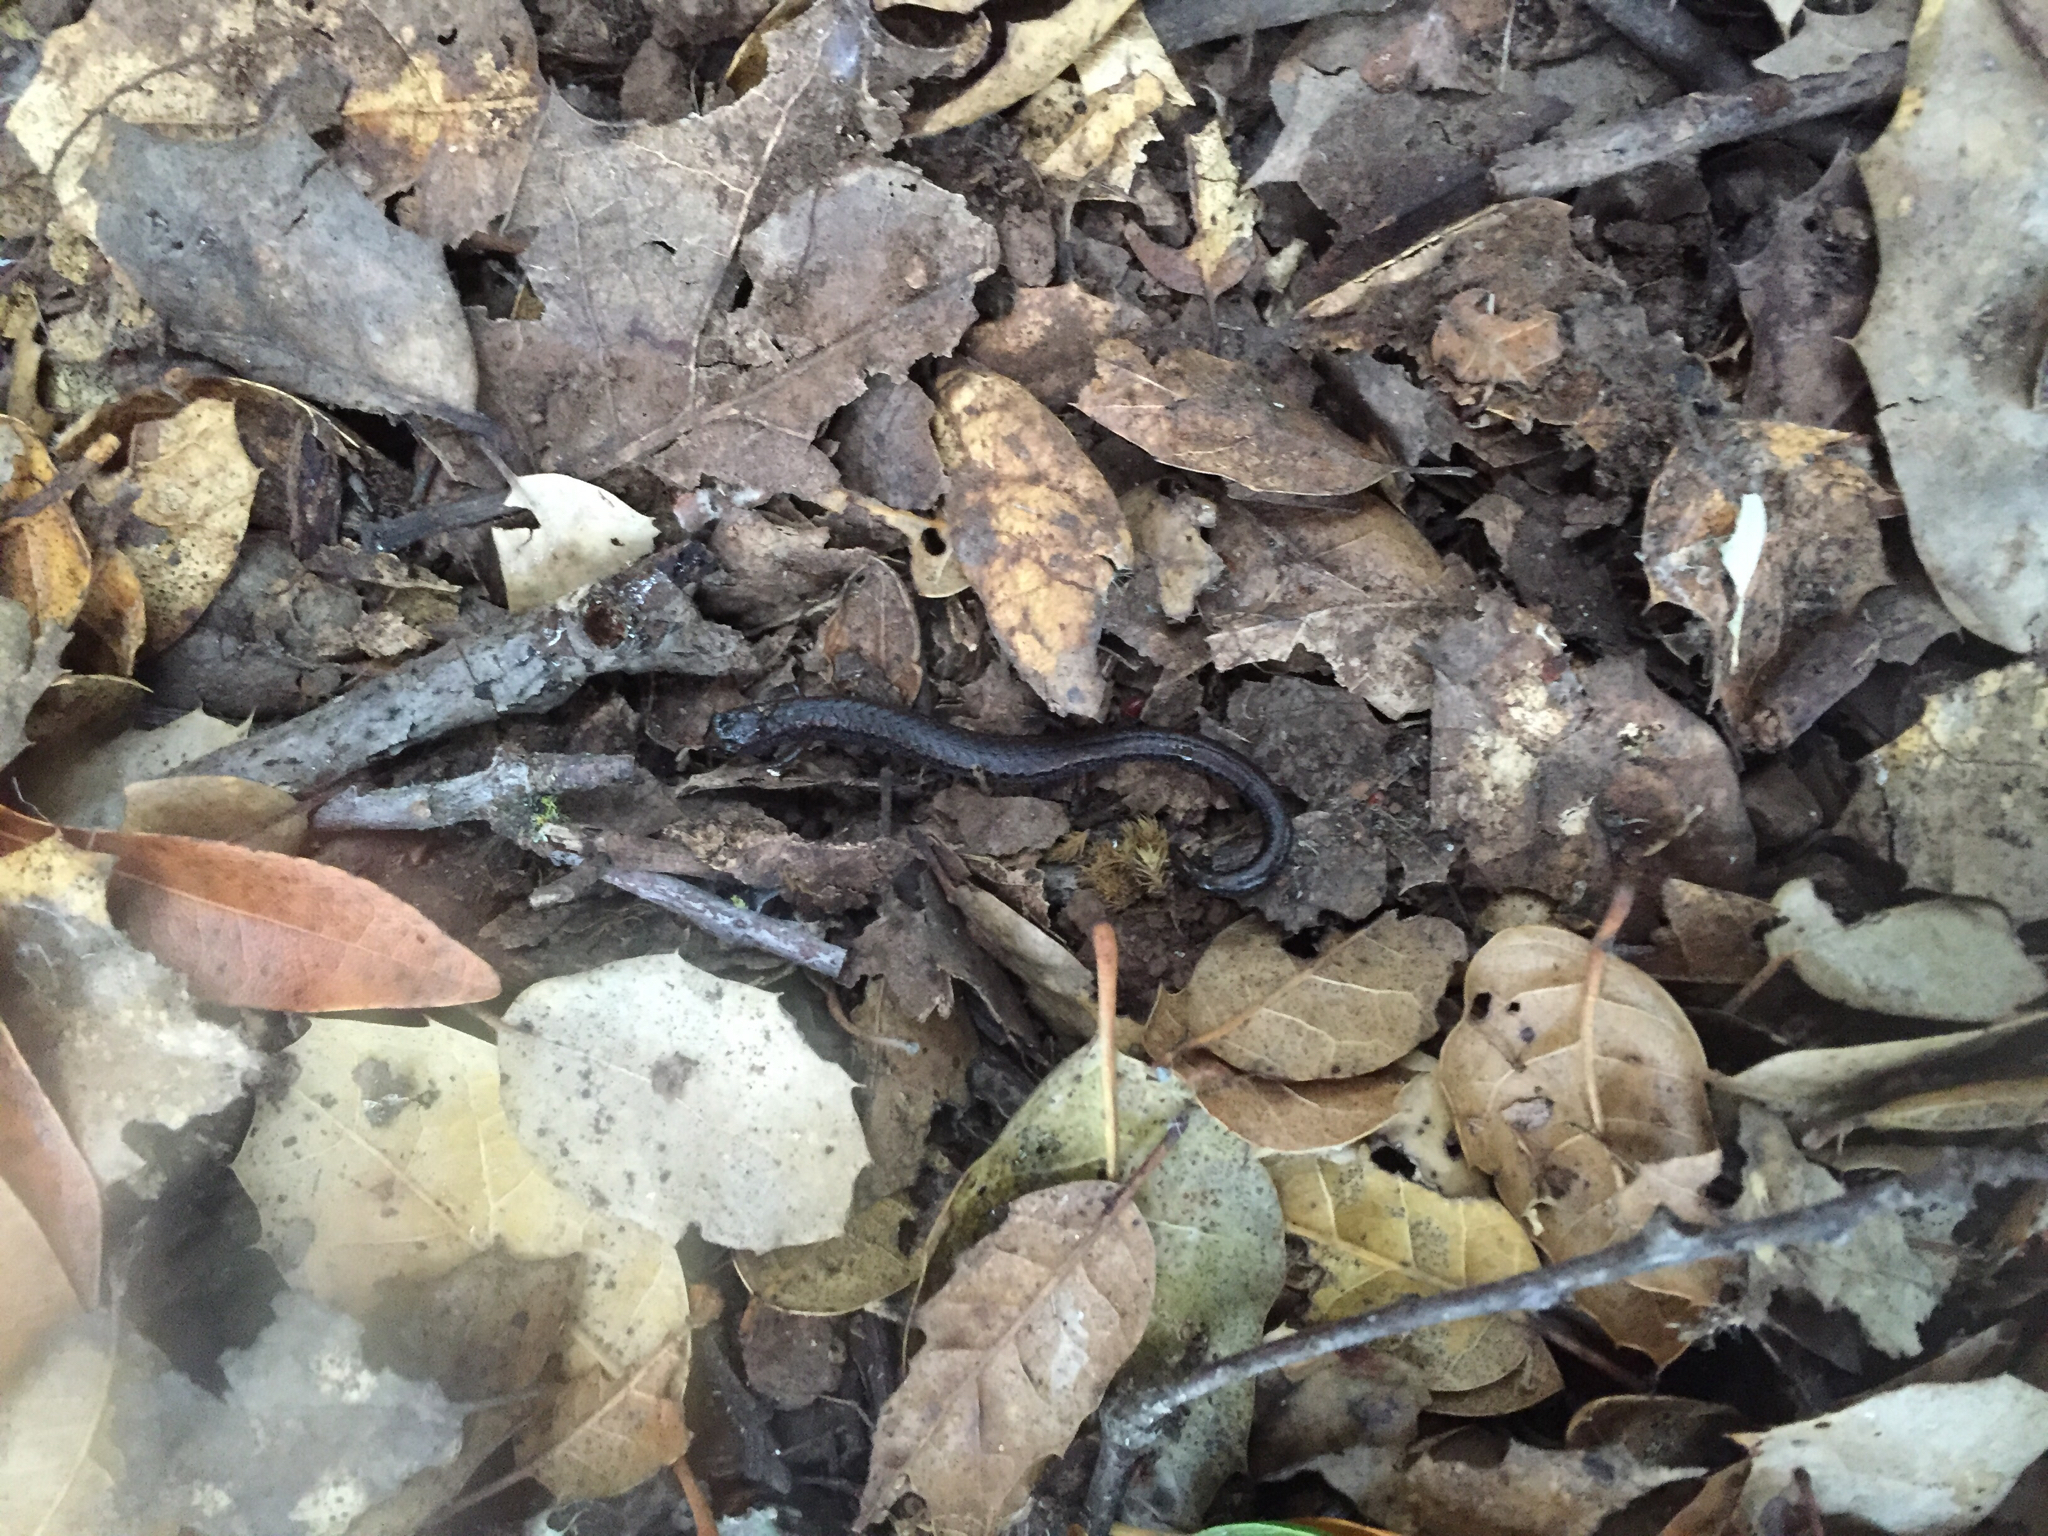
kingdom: Animalia
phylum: Chordata
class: Amphibia
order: Caudata
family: Plethodontidae
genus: Batrachoseps
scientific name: Batrachoseps attenuatus
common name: California slender salamander
